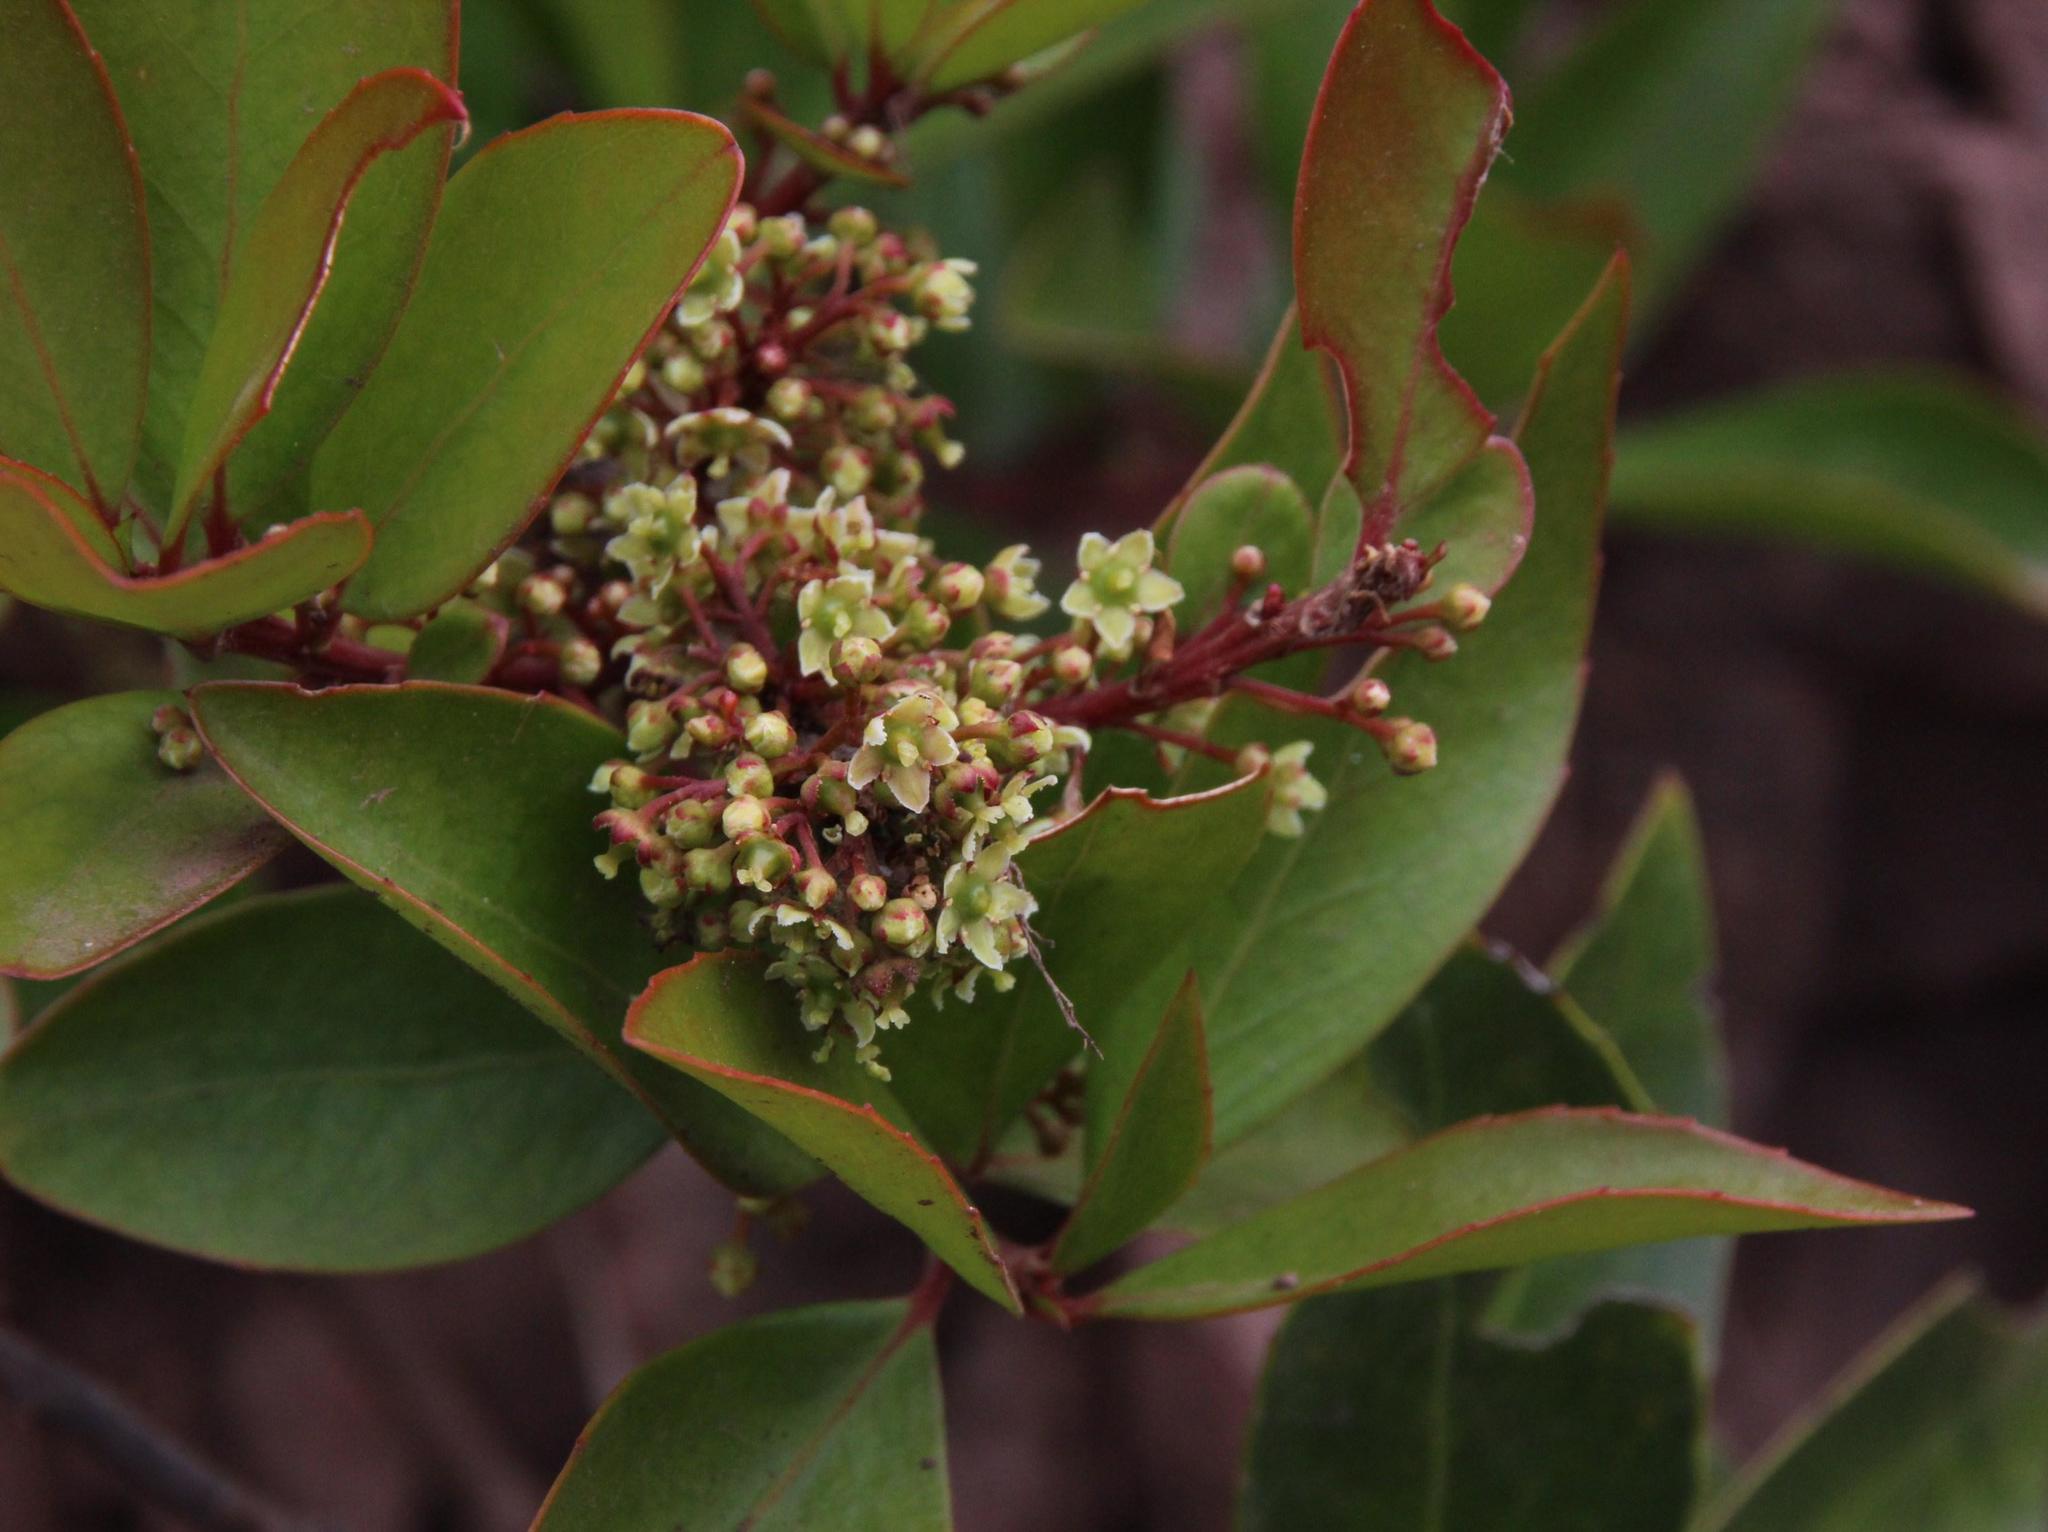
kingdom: Plantae
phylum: Tracheophyta
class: Magnoliopsida
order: Celastrales
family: Celastraceae
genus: Maytenus
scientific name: Maytenus jelskii
